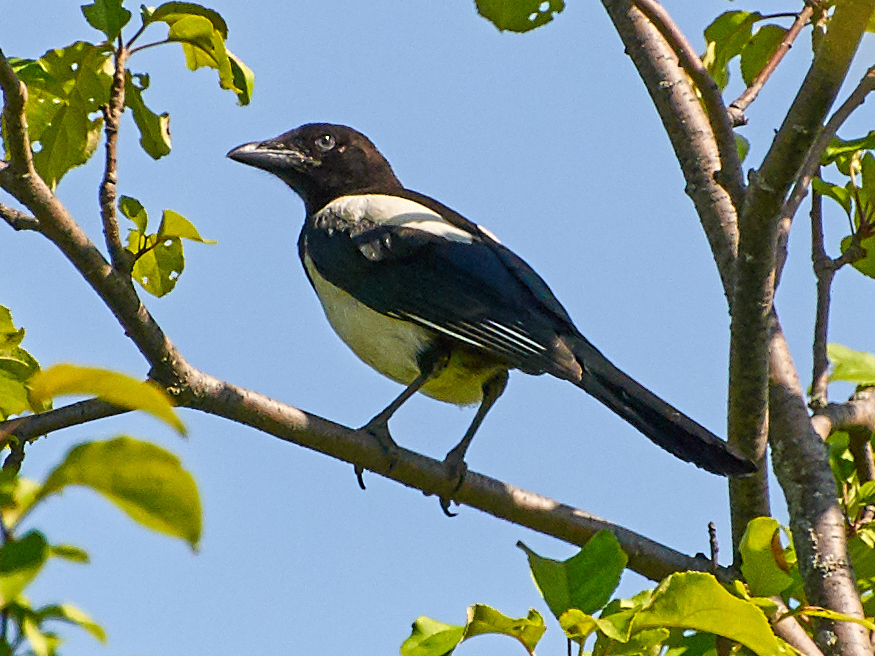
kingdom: Animalia
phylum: Chordata
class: Aves
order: Passeriformes
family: Corvidae
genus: Pica
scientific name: Pica pica
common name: Eurasian magpie
